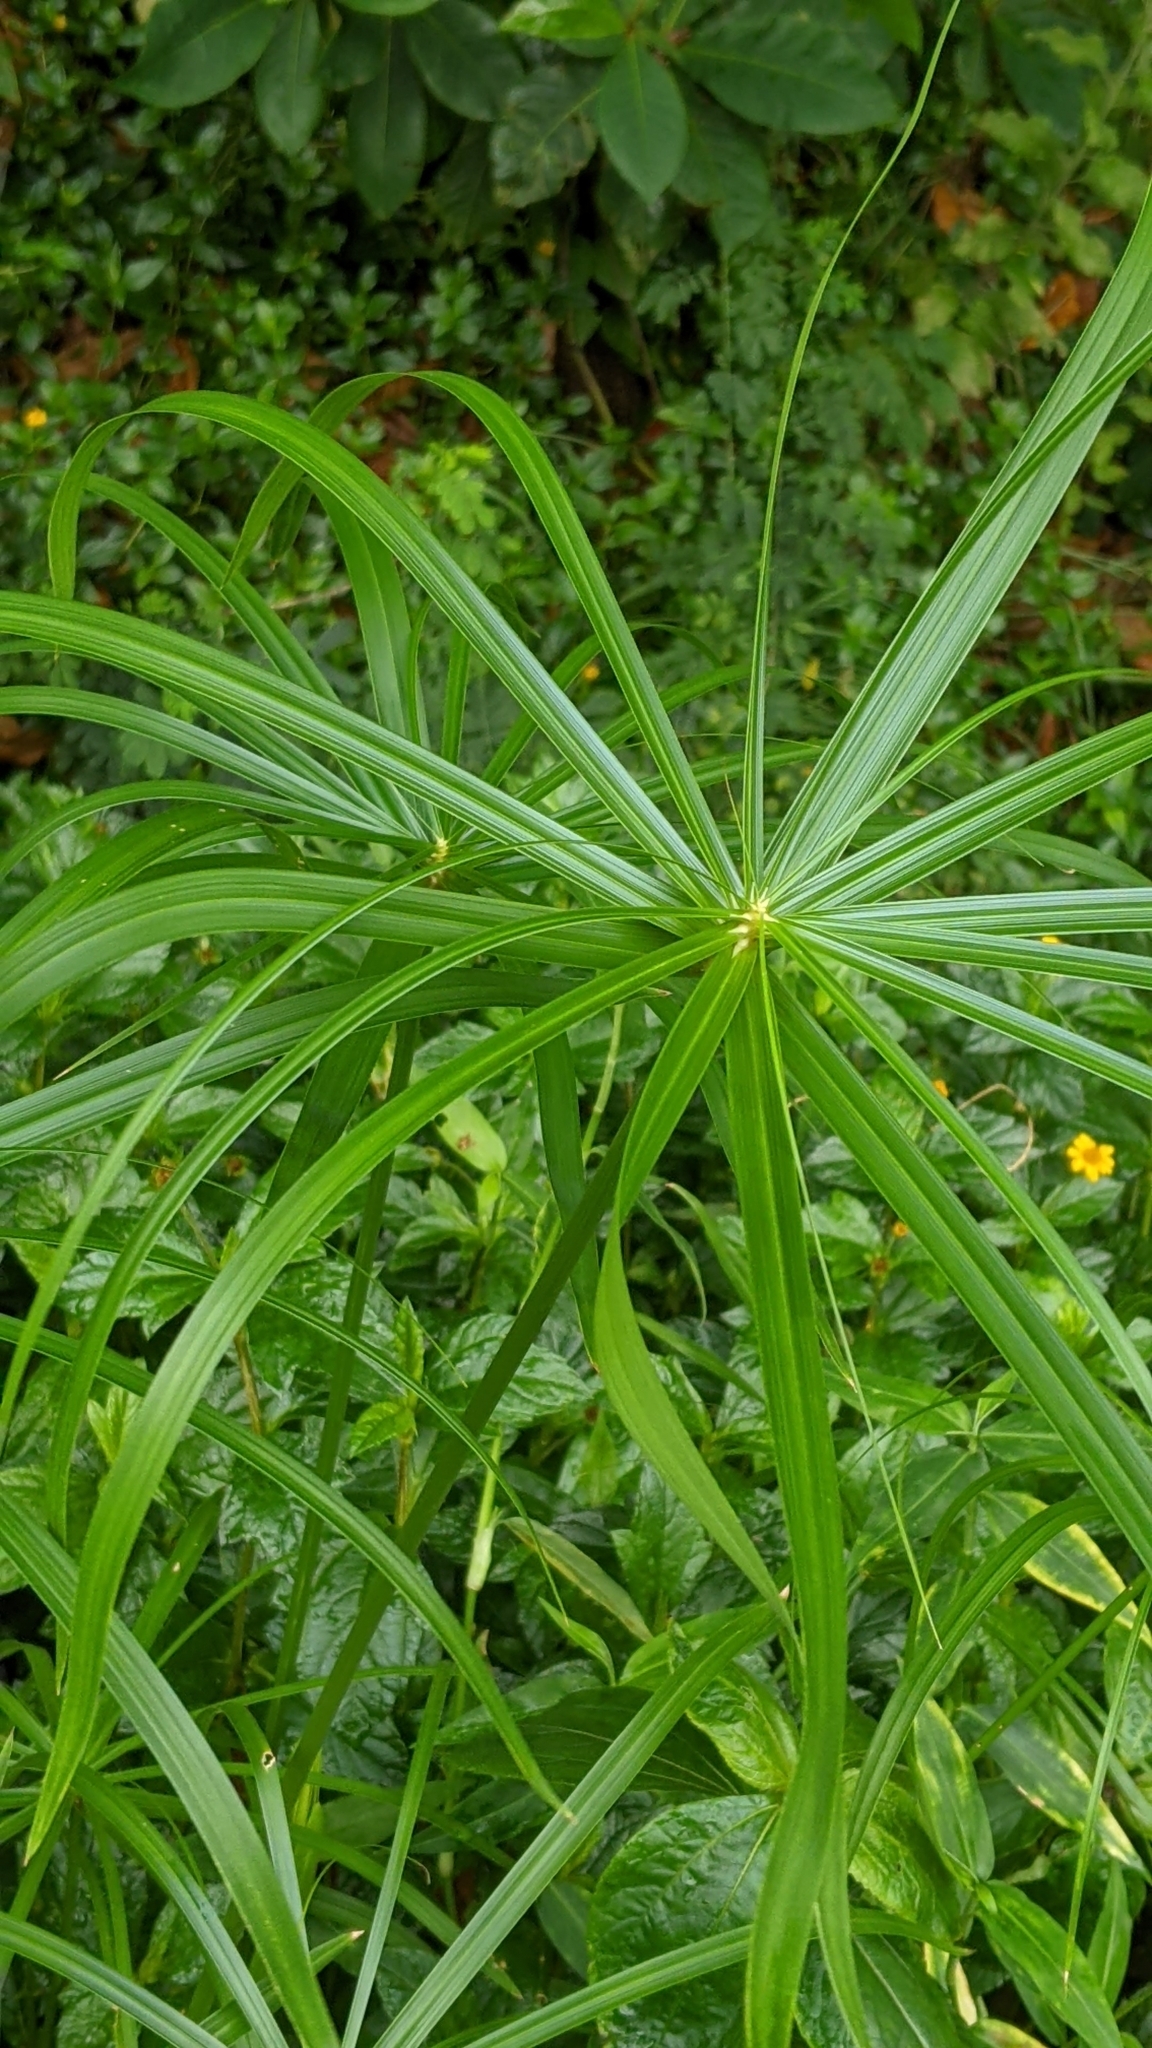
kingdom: Plantae
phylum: Tracheophyta
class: Liliopsida
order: Poales
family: Cyperaceae
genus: Cyperus
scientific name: Cyperus alternifolius
